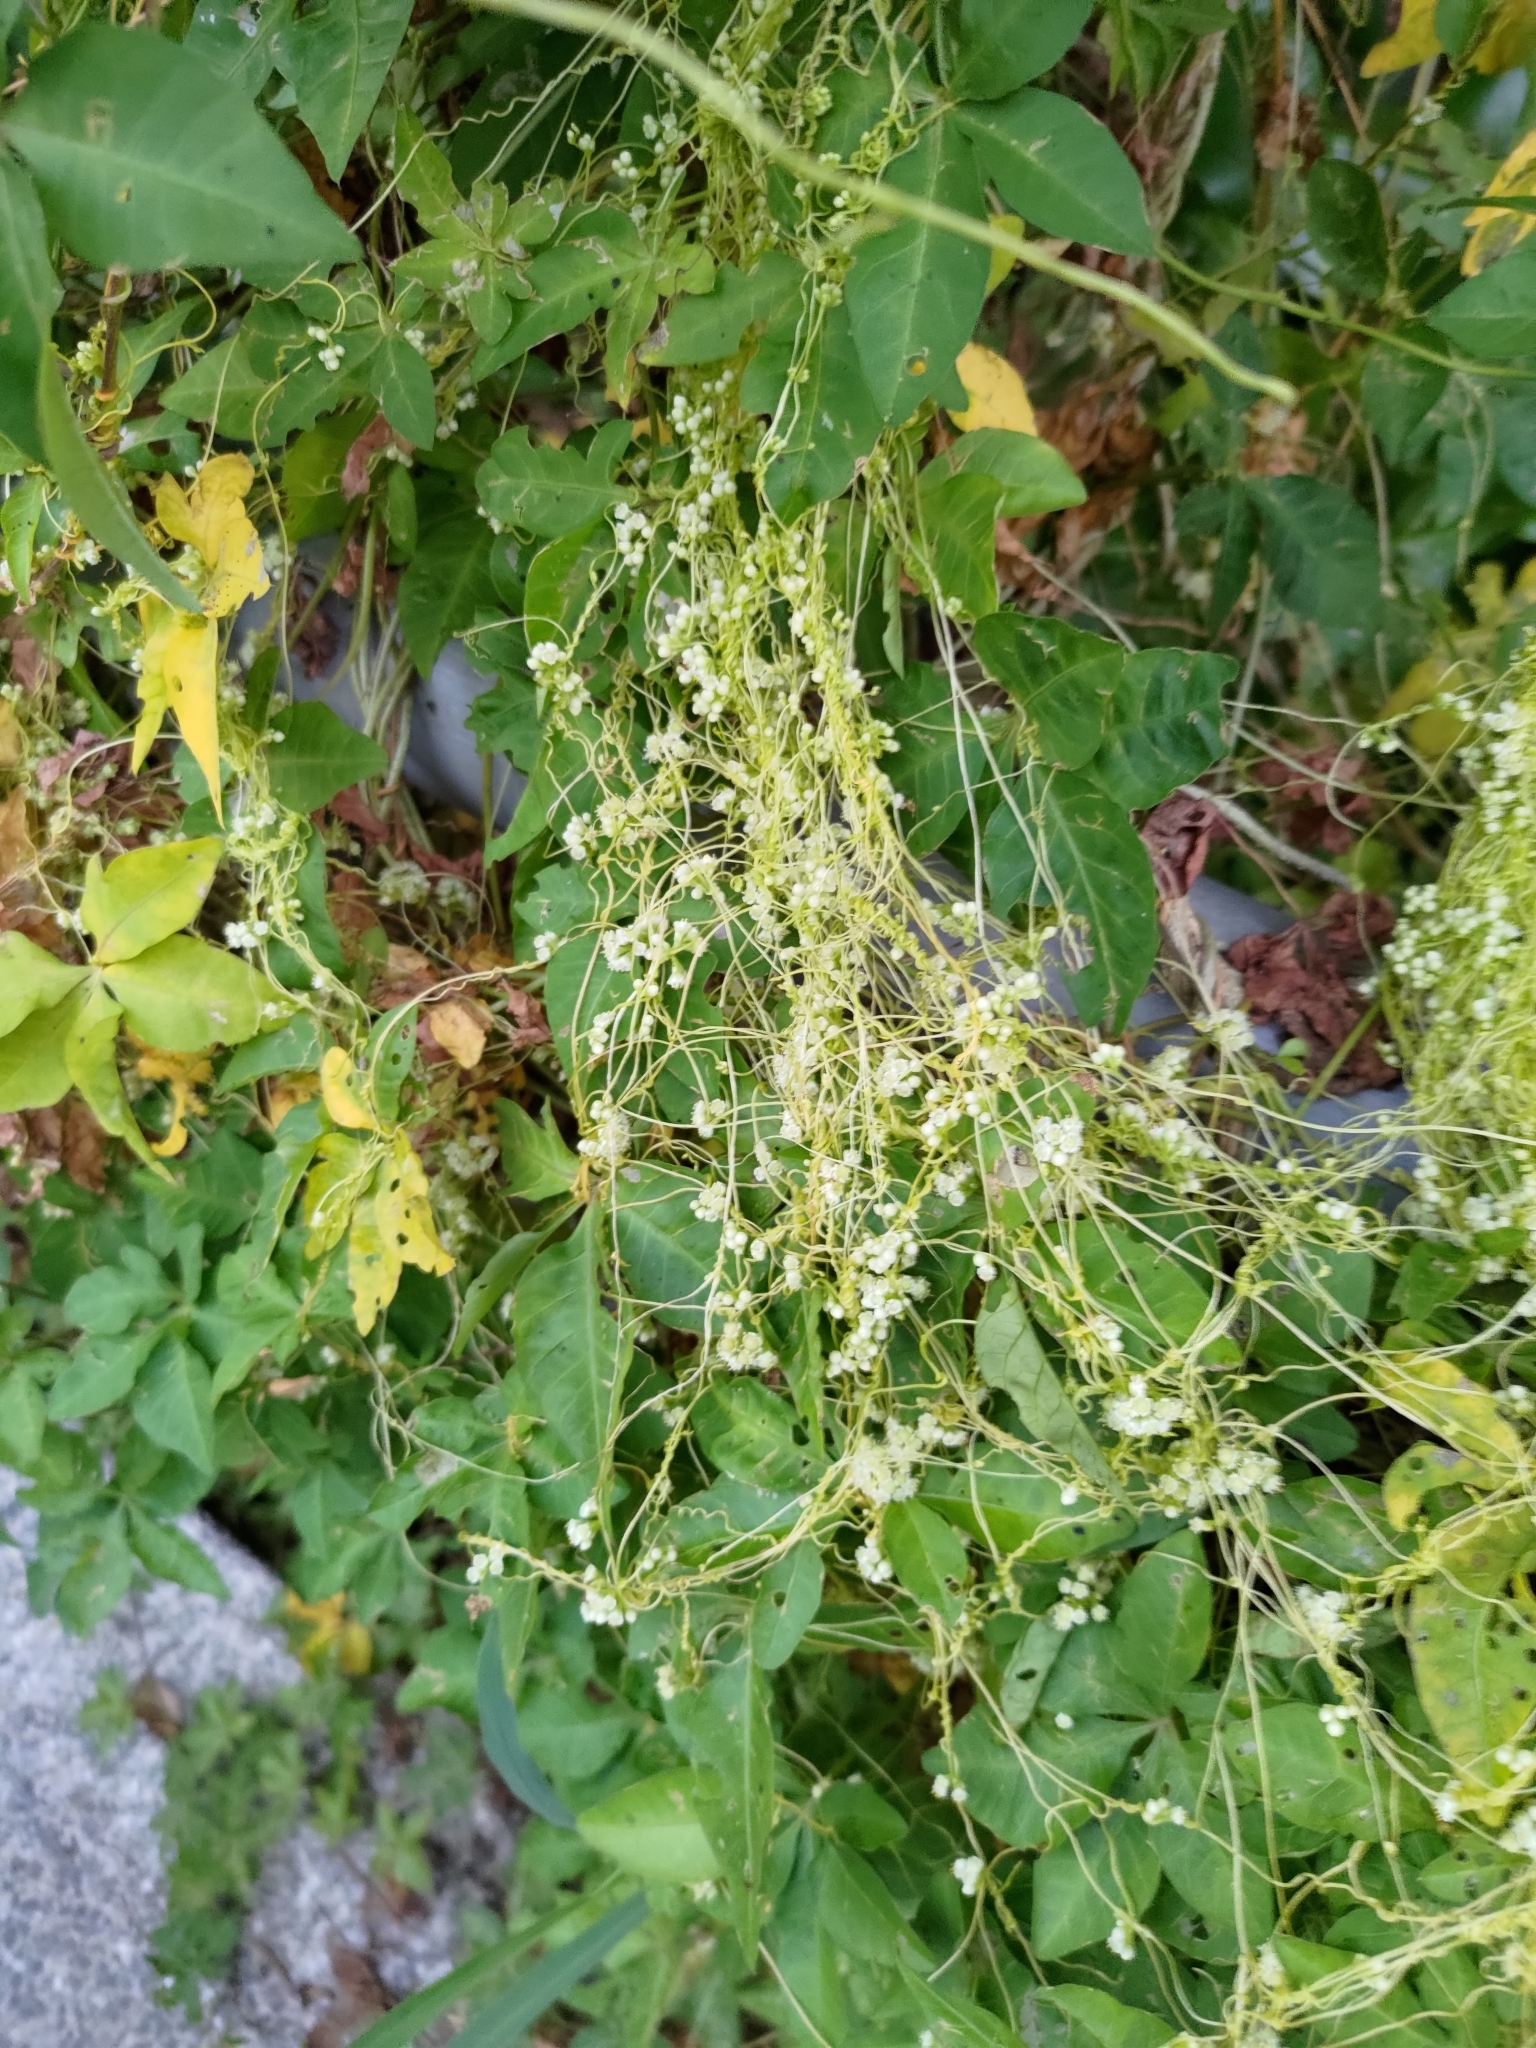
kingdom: Plantae
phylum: Tracheophyta
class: Magnoliopsida
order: Solanales
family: Convolvulaceae
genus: Cuscuta
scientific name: Cuscuta campestris
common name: Yellow dodder
